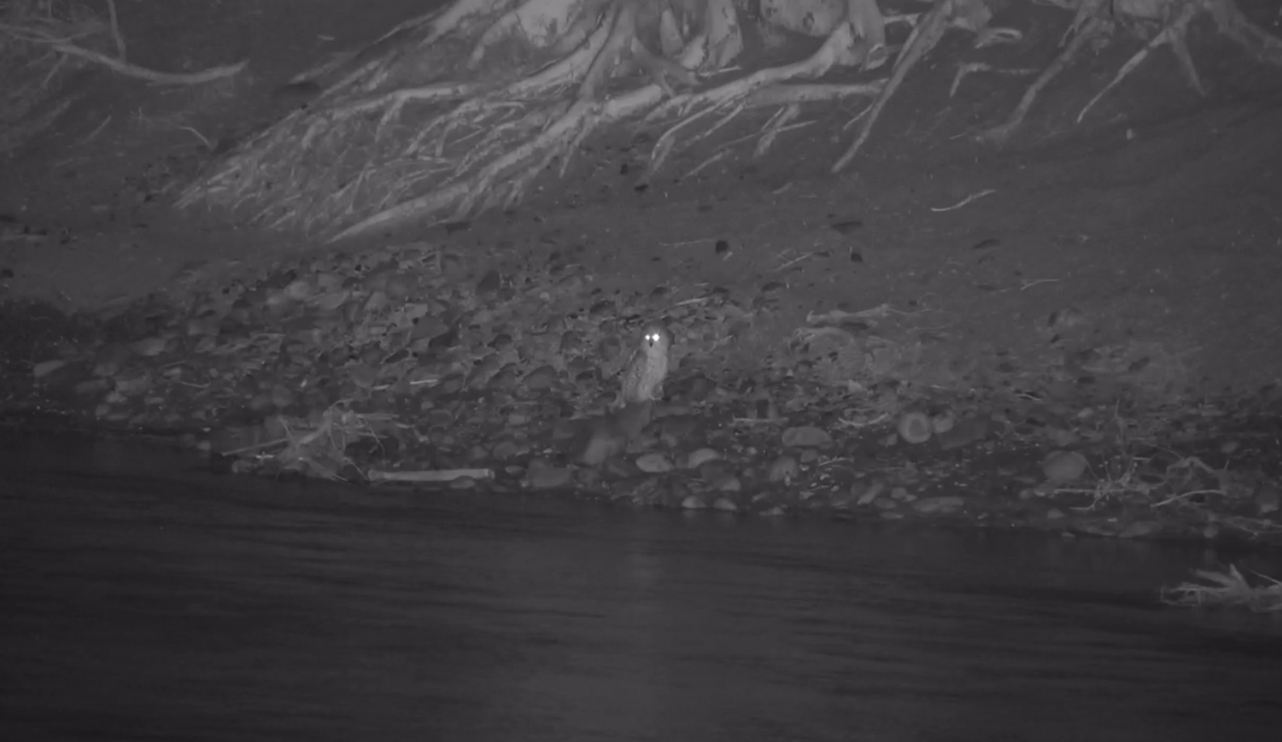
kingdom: Animalia
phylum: Chordata
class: Aves
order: Strigiformes
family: Strigidae
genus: Scotopelia
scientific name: Scotopelia peli
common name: Pel's fishing owl
